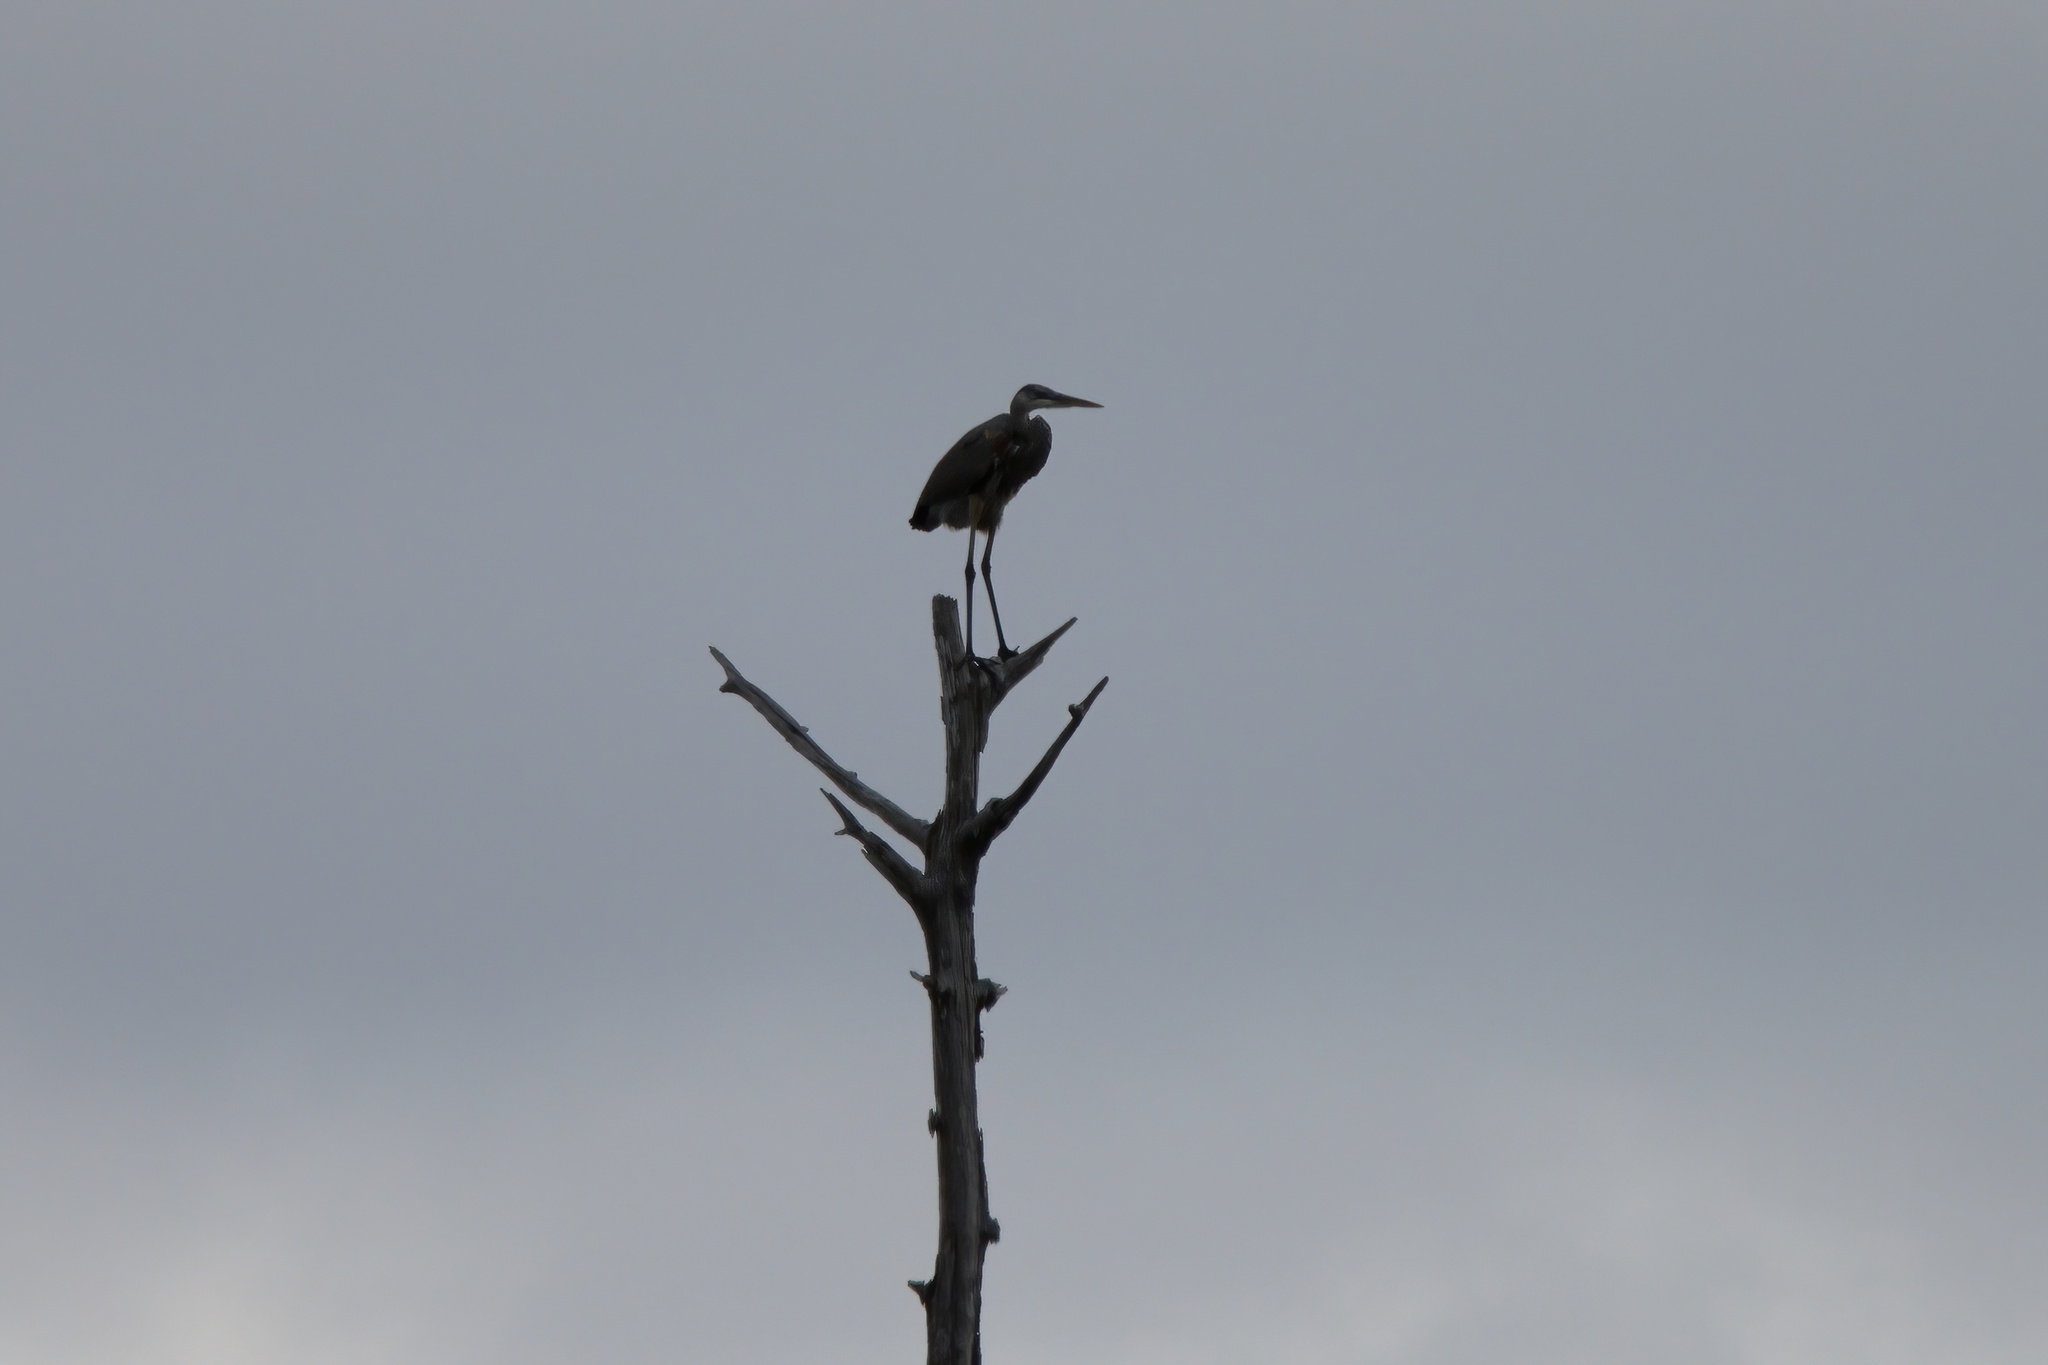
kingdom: Animalia
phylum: Chordata
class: Aves
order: Pelecaniformes
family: Ardeidae
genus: Ardea
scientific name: Ardea herodias
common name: Great blue heron
